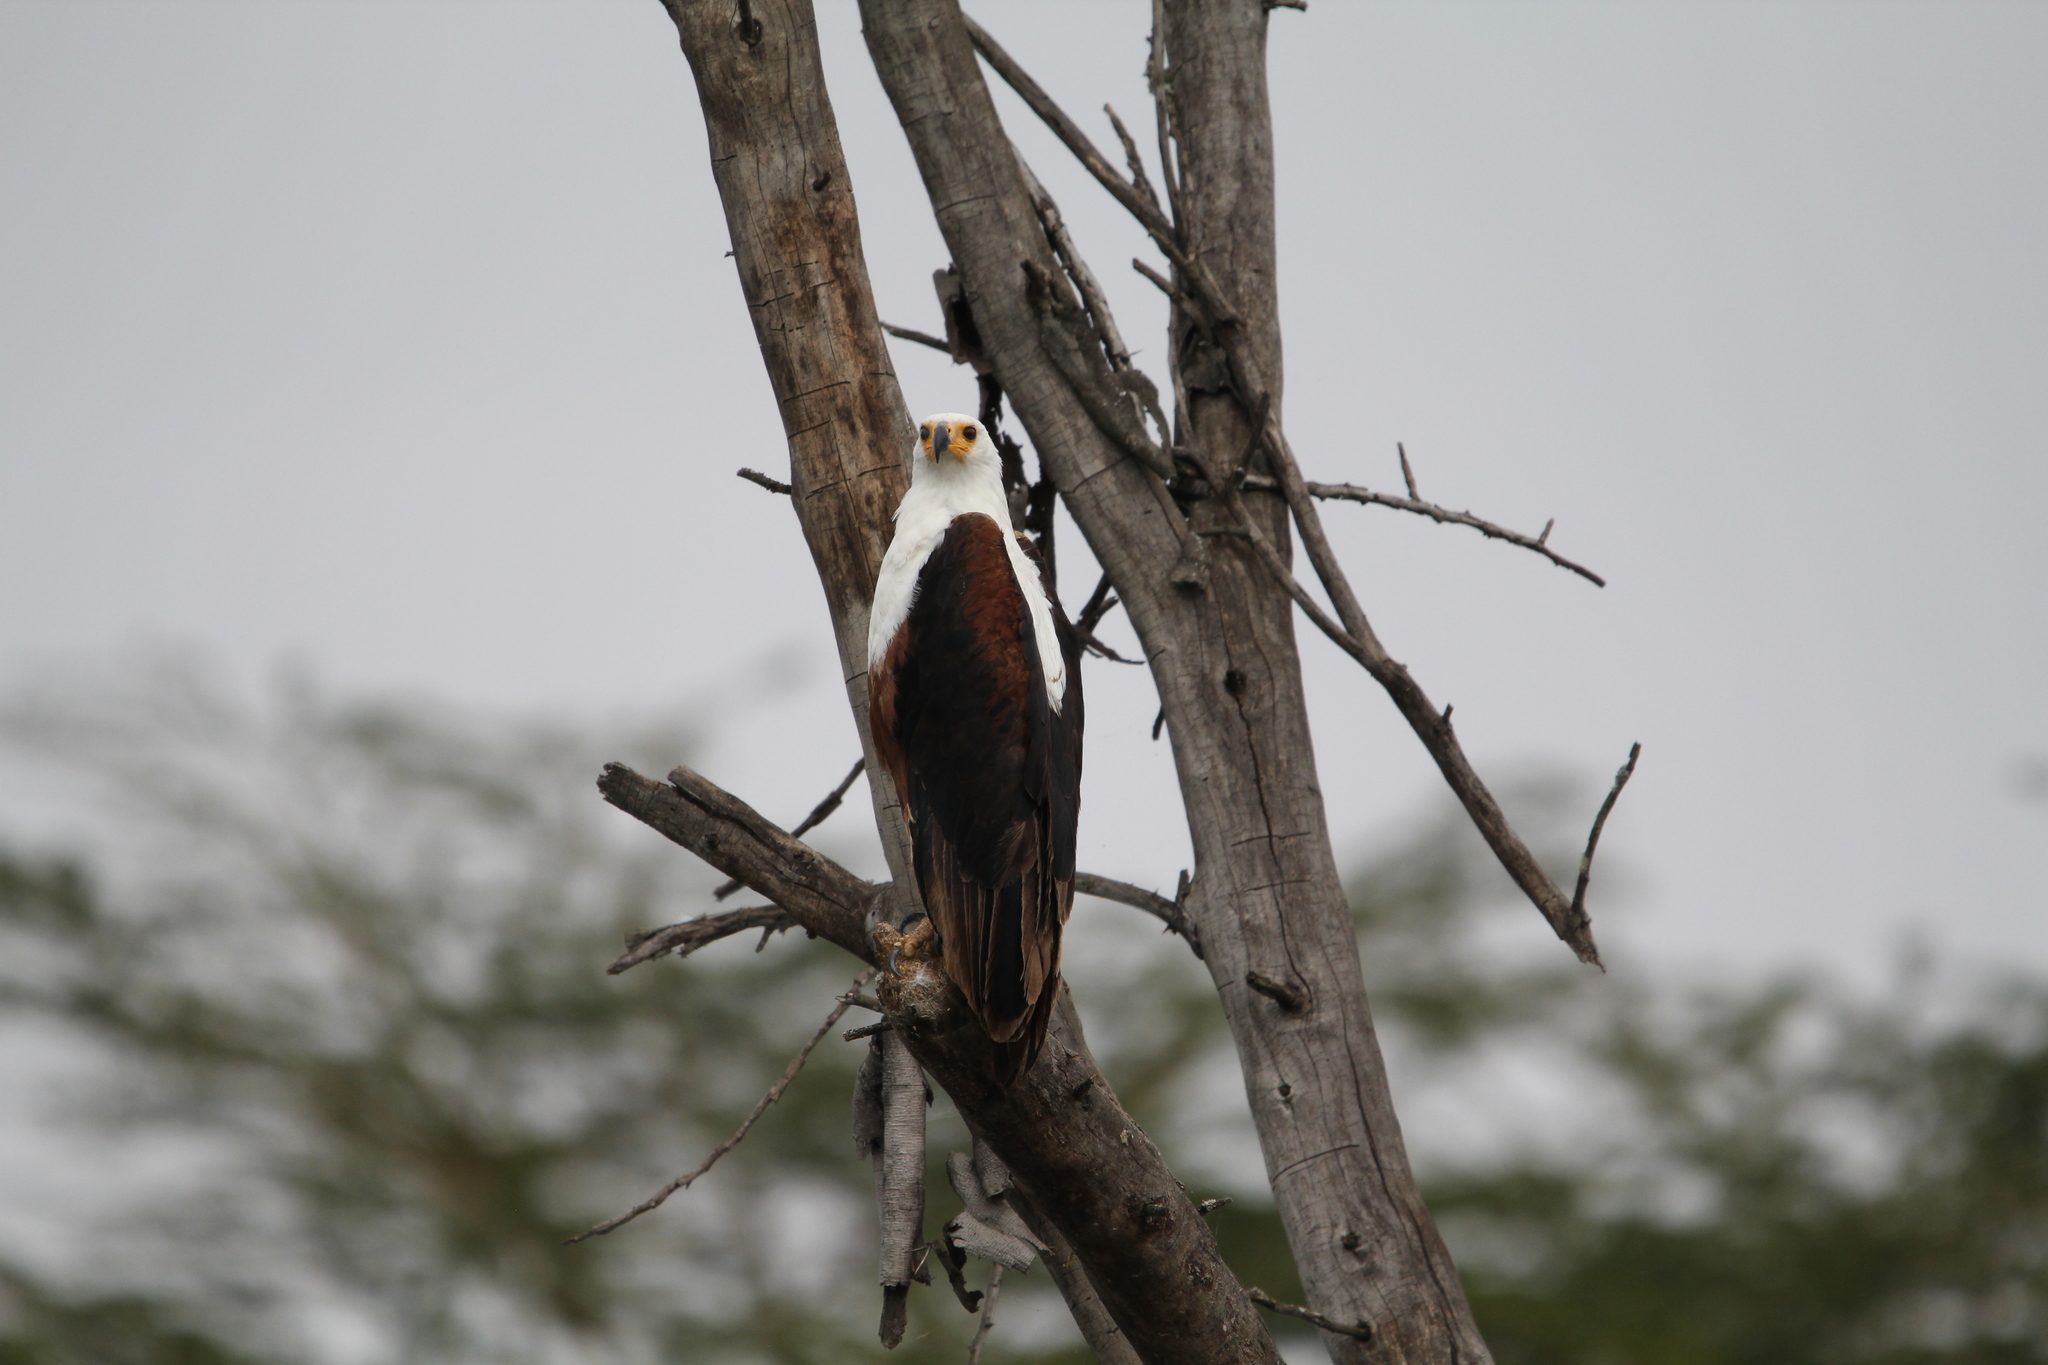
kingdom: Animalia
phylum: Chordata
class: Aves
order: Accipitriformes
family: Accipitridae
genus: Haliaeetus
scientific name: Haliaeetus vocifer
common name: African fish eagle
